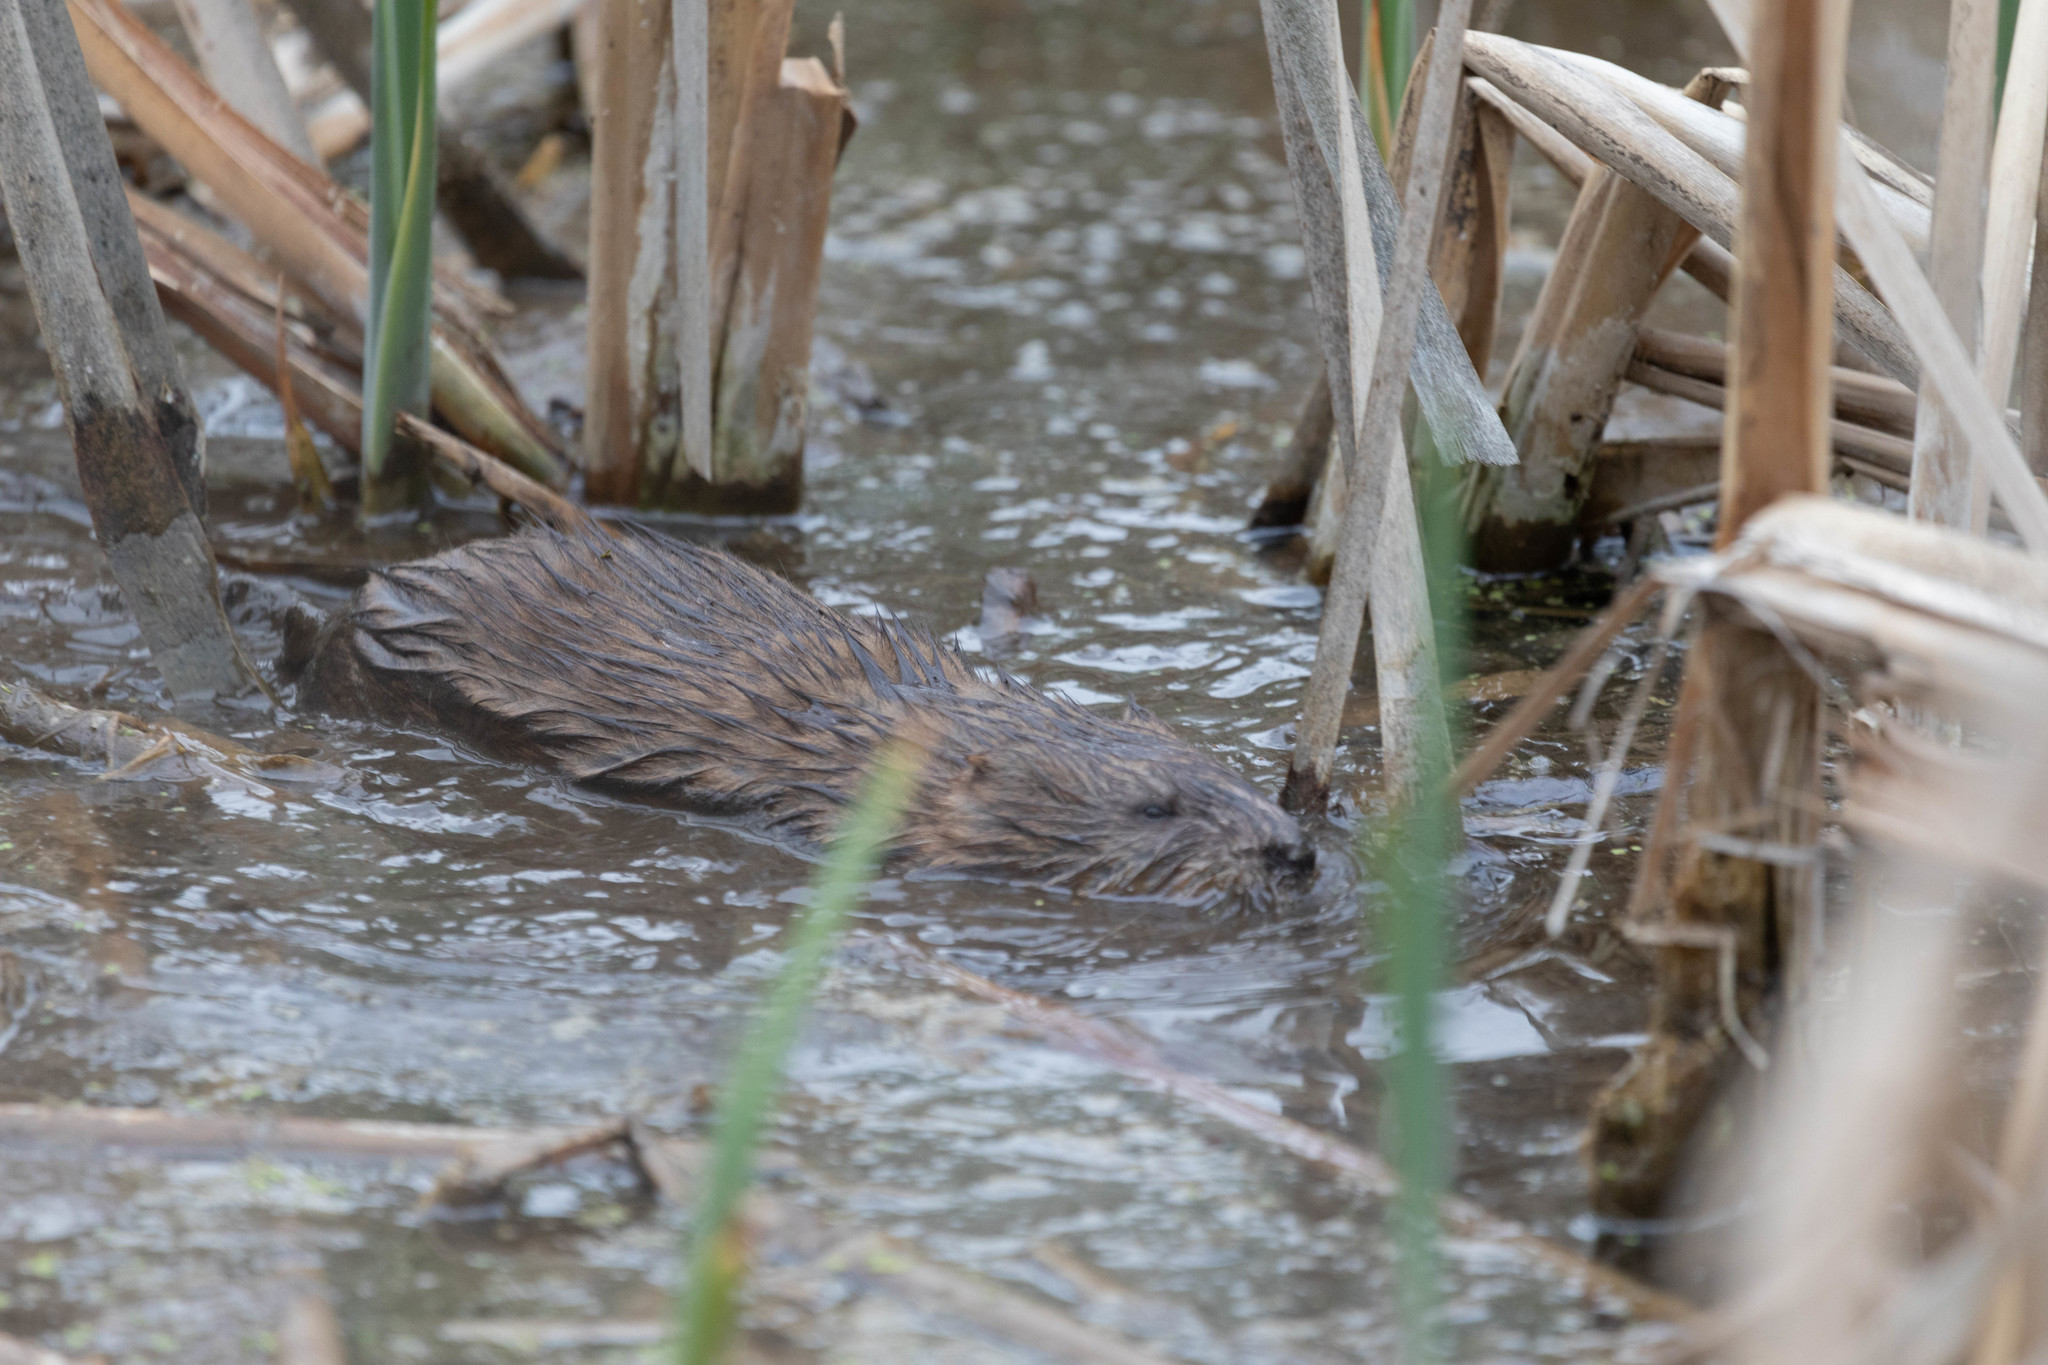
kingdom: Animalia
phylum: Chordata
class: Mammalia
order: Rodentia
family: Cricetidae
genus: Ondatra
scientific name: Ondatra zibethicus
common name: Muskrat
